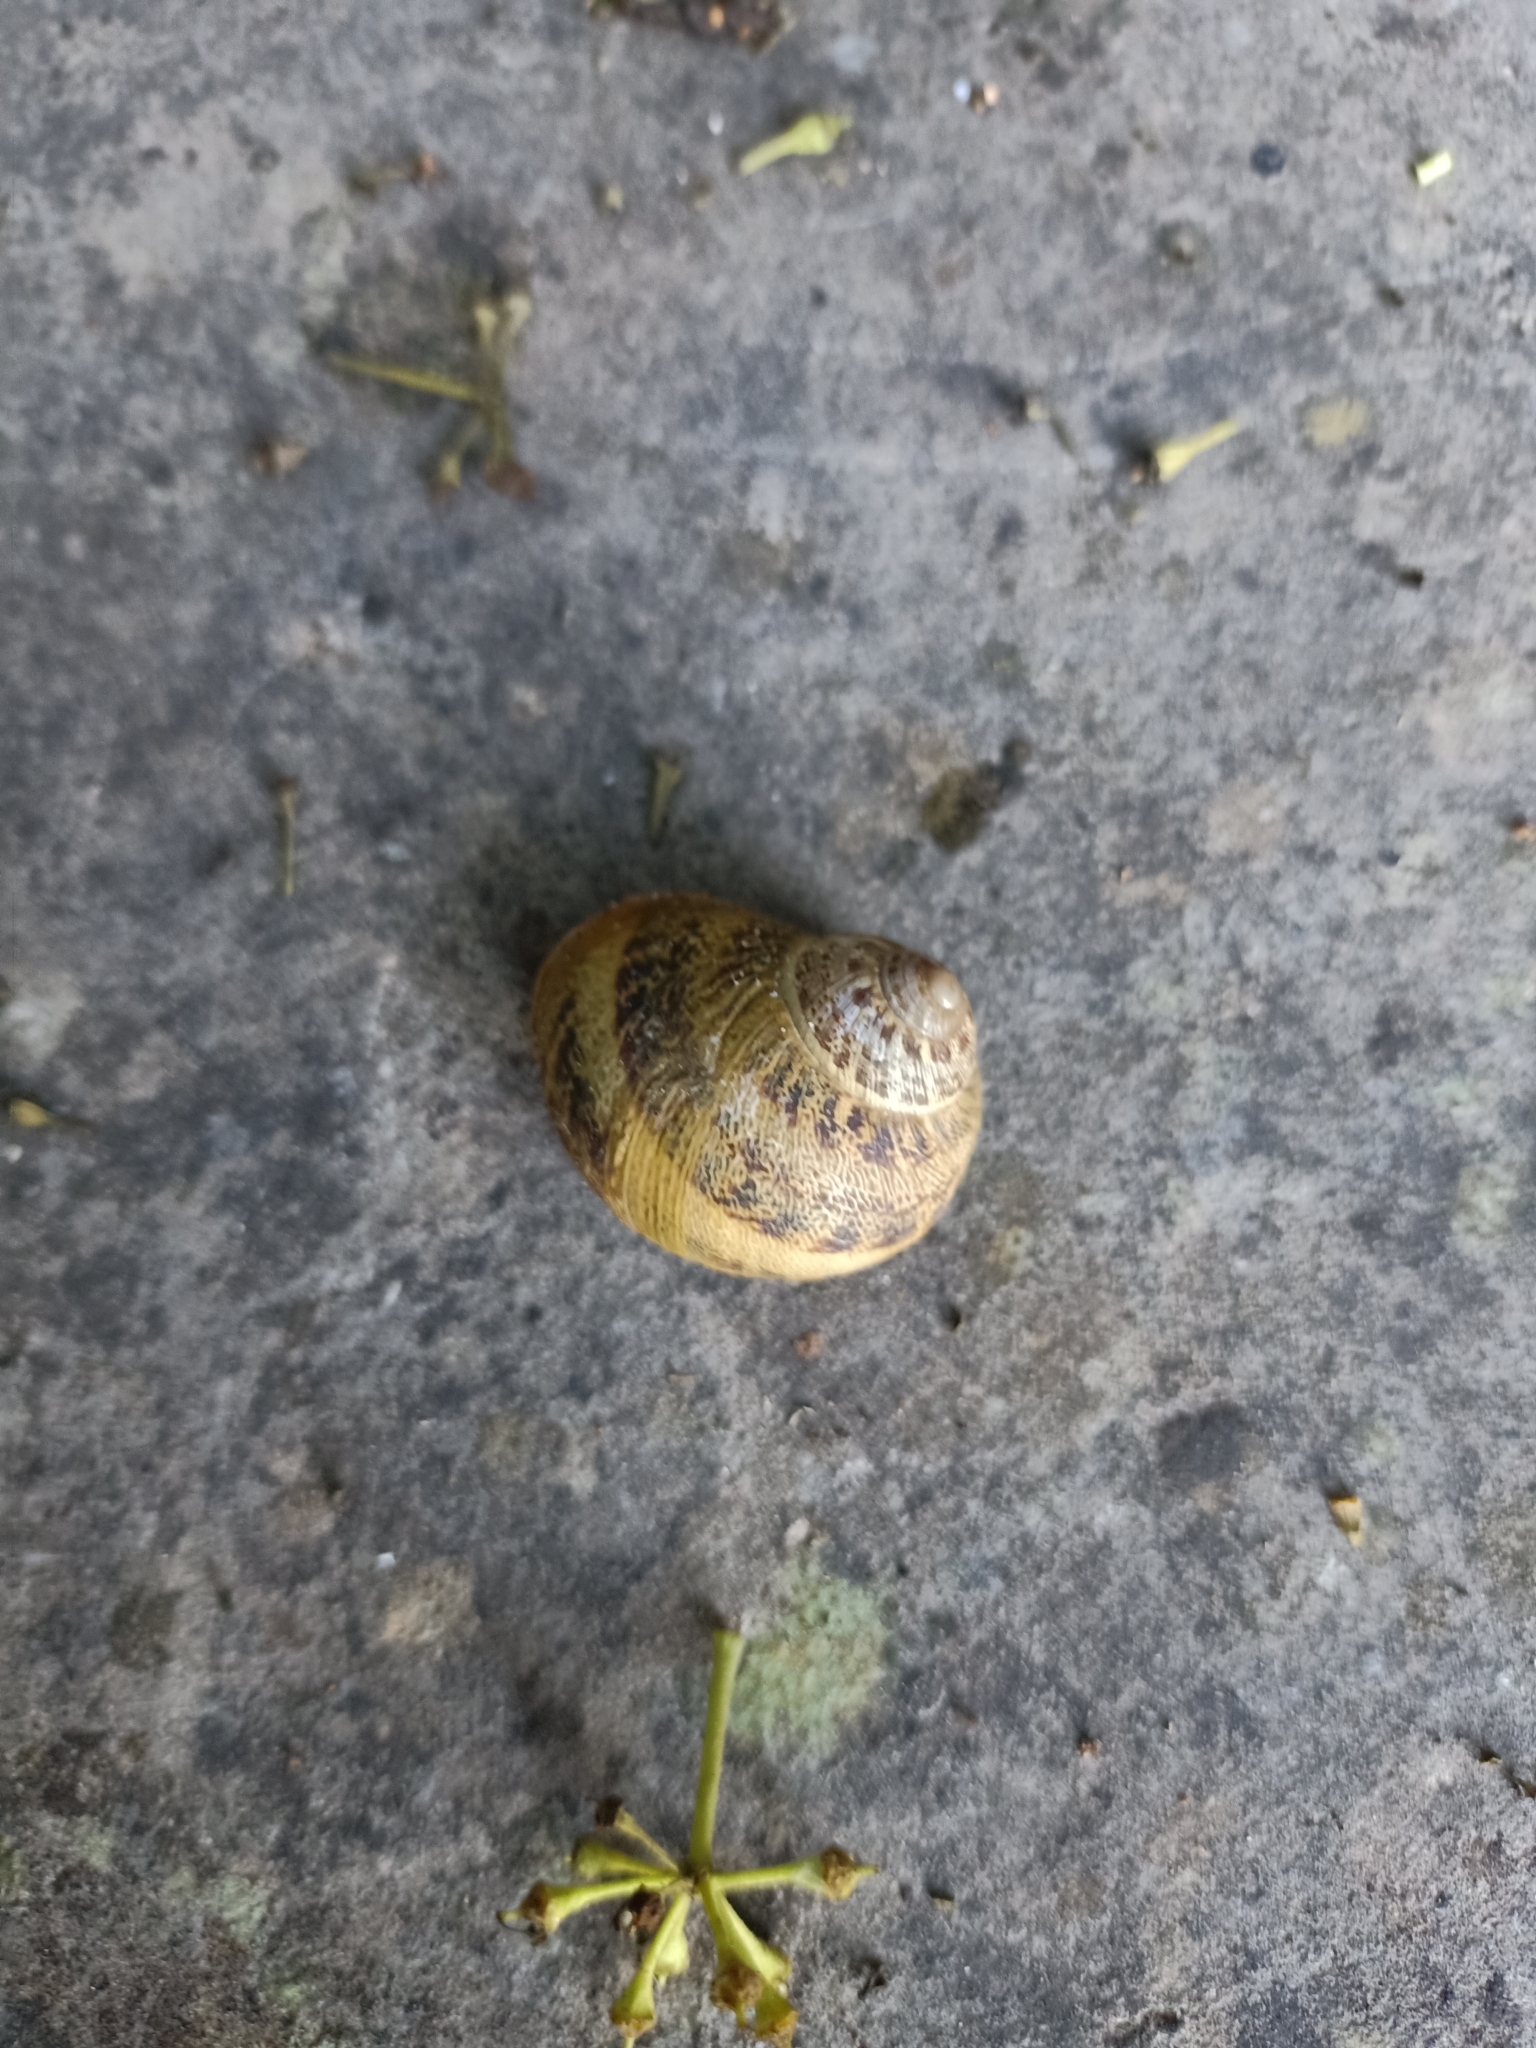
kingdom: Animalia
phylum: Mollusca
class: Gastropoda
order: Stylommatophora
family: Helicidae
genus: Cornu
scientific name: Cornu aspersum
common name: Brown garden snail
